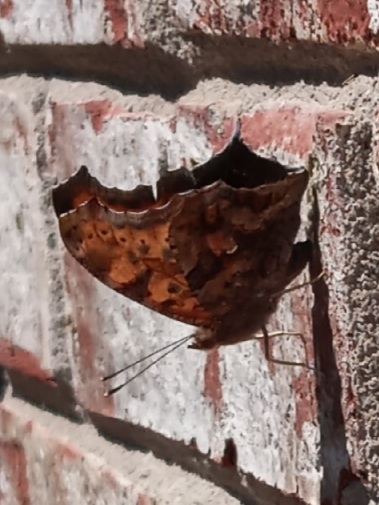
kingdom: Animalia
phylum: Arthropoda
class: Insecta
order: Lepidoptera
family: Nymphalidae
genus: Polygonia
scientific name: Polygonia interrogationis
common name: Question mark
